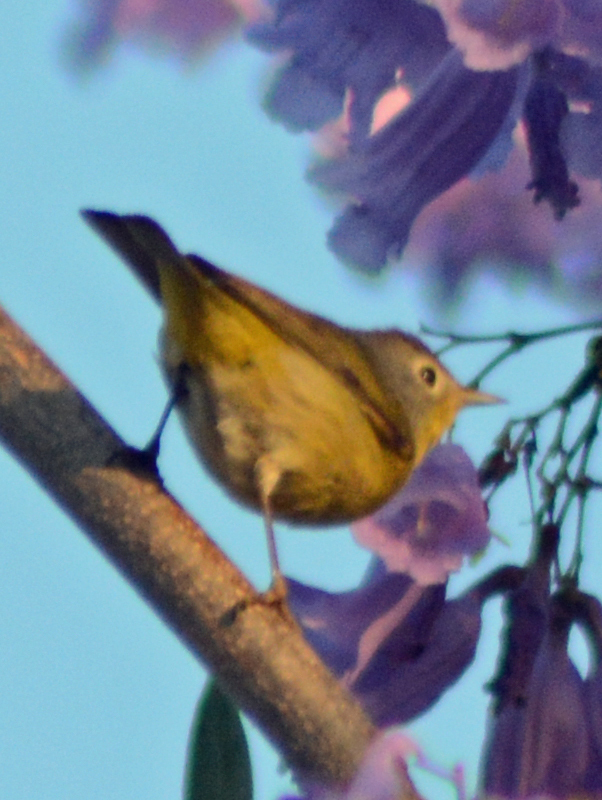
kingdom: Animalia
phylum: Chordata
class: Aves
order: Passeriformes
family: Parulidae
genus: Leiothlypis
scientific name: Leiothlypis ruficapilla
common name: Nashville warbler
